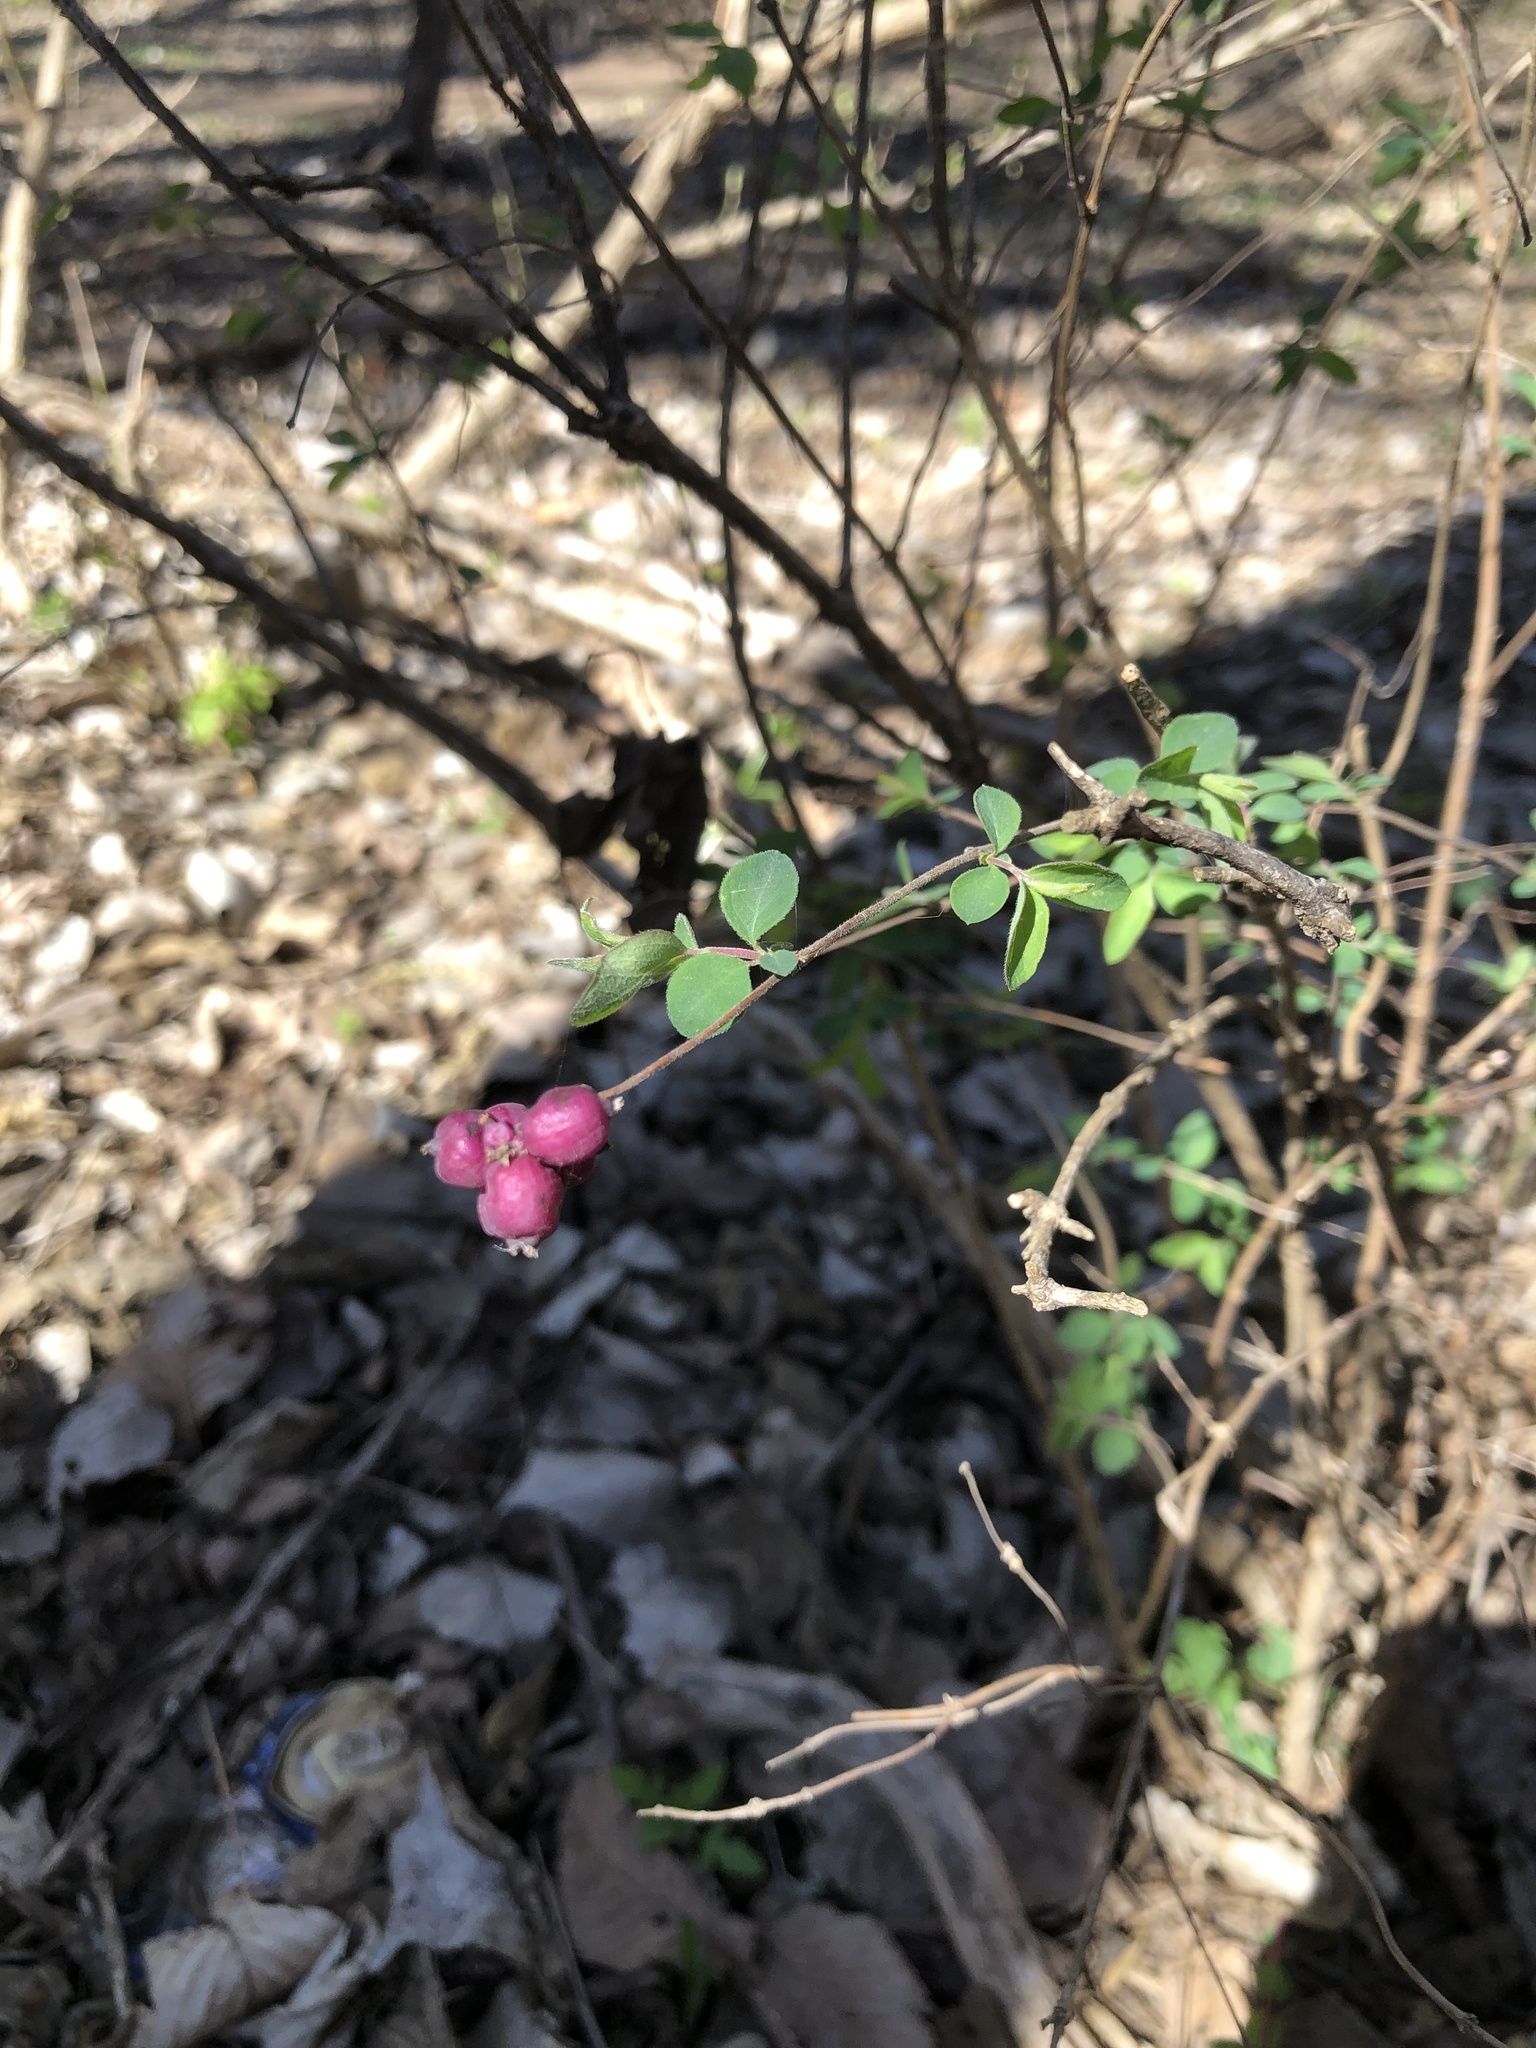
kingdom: Plantae
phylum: Tracheophyta
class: Magnoliopsida
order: Dipsacales
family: Caprifoliaceae
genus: Symphoricarpos
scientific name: Symphoricarpos orbiculatus
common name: Coralberry
